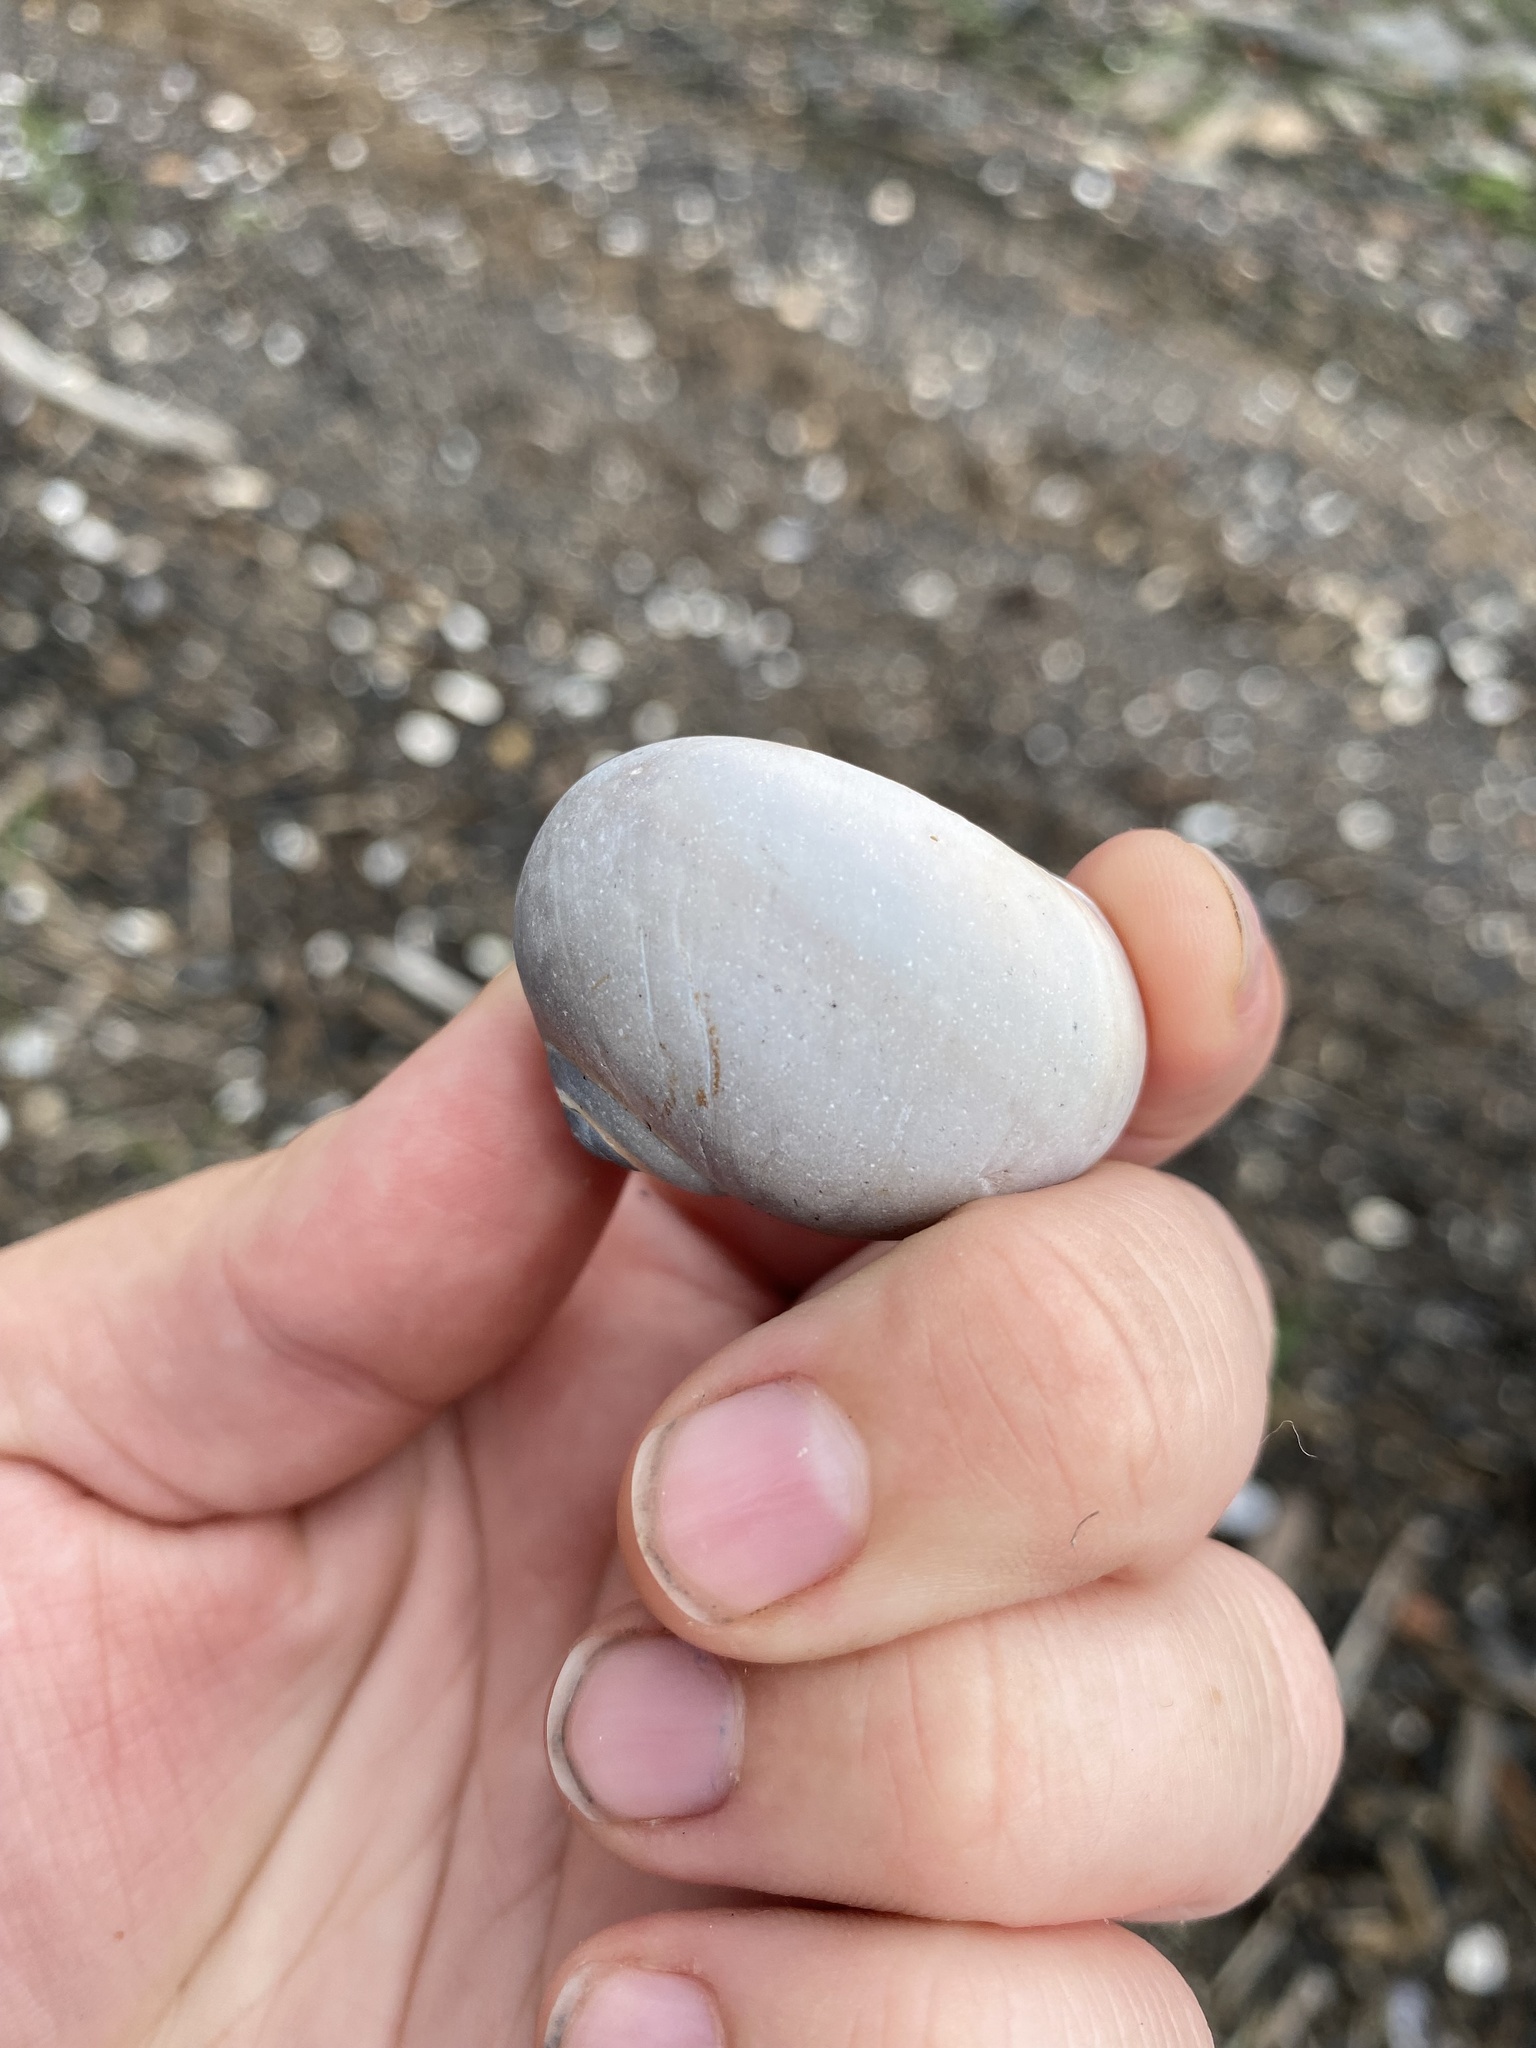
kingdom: Animalia
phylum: Mollusca
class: Gastropoda
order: Littorinimorpha
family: Naticidae
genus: Neverita
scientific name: Neverita duplicata
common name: Lobed moonsnail
